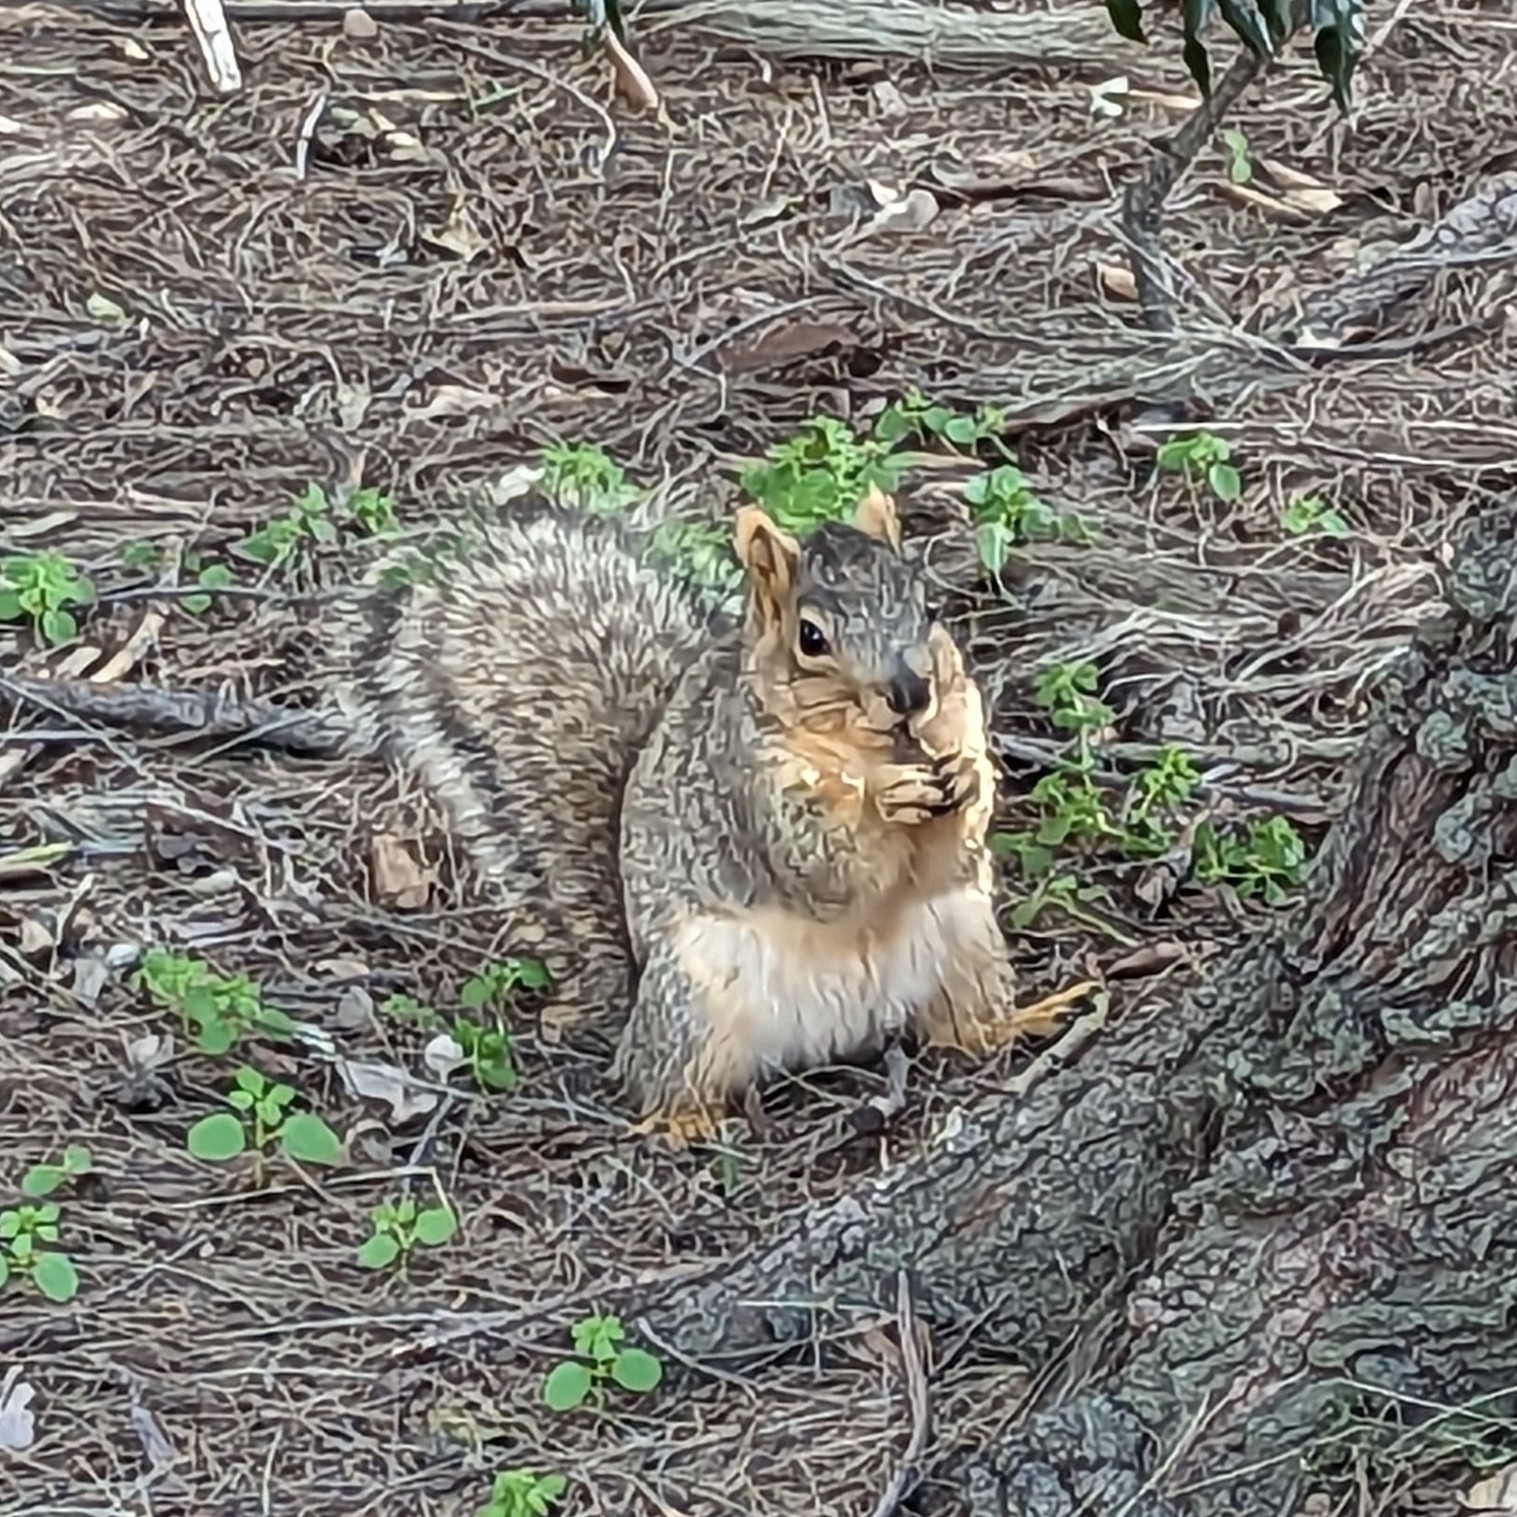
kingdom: Animalia
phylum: Chordata
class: Mammalia
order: Rodentia
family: Sciuridae
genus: Sciurus
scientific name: Sciurus niger
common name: Fox squirrel
